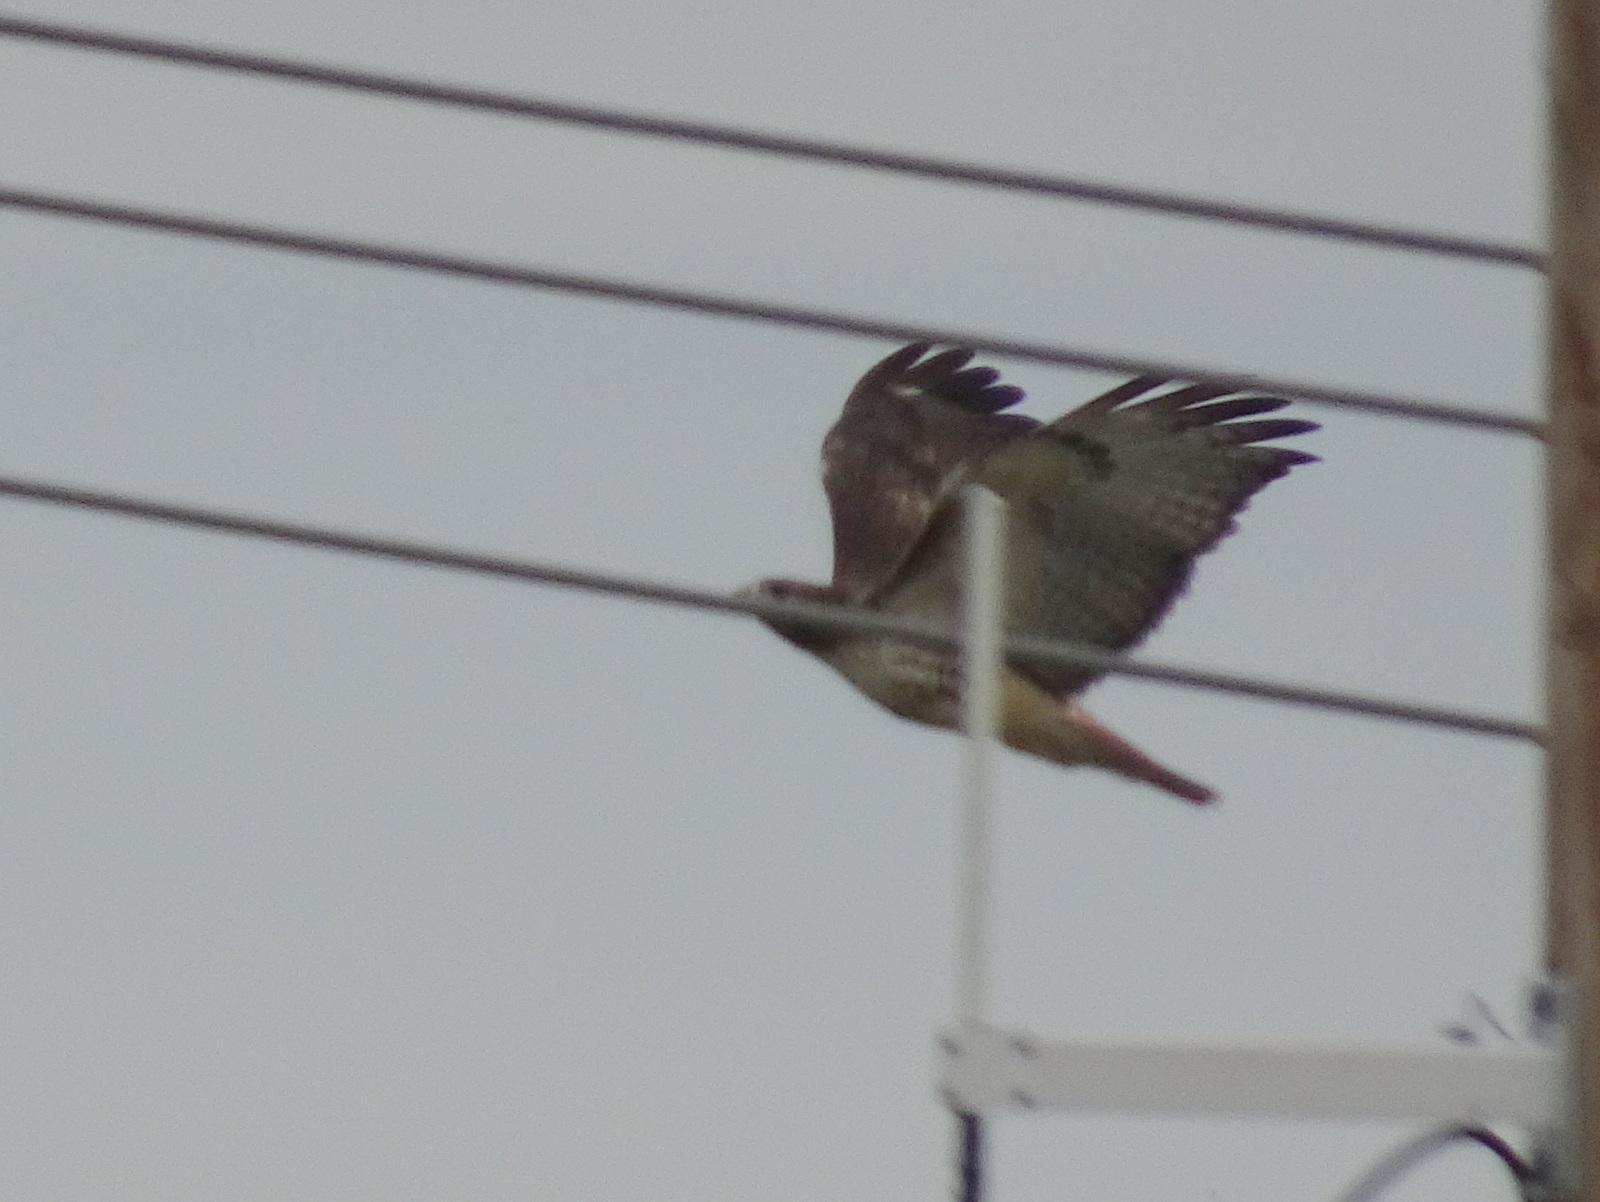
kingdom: Animalia
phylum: Chordata
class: Aves
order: Accipitriformes
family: Accipitridae
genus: Buteo
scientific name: Buteo jamaicensis
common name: Red-tailed hawk
